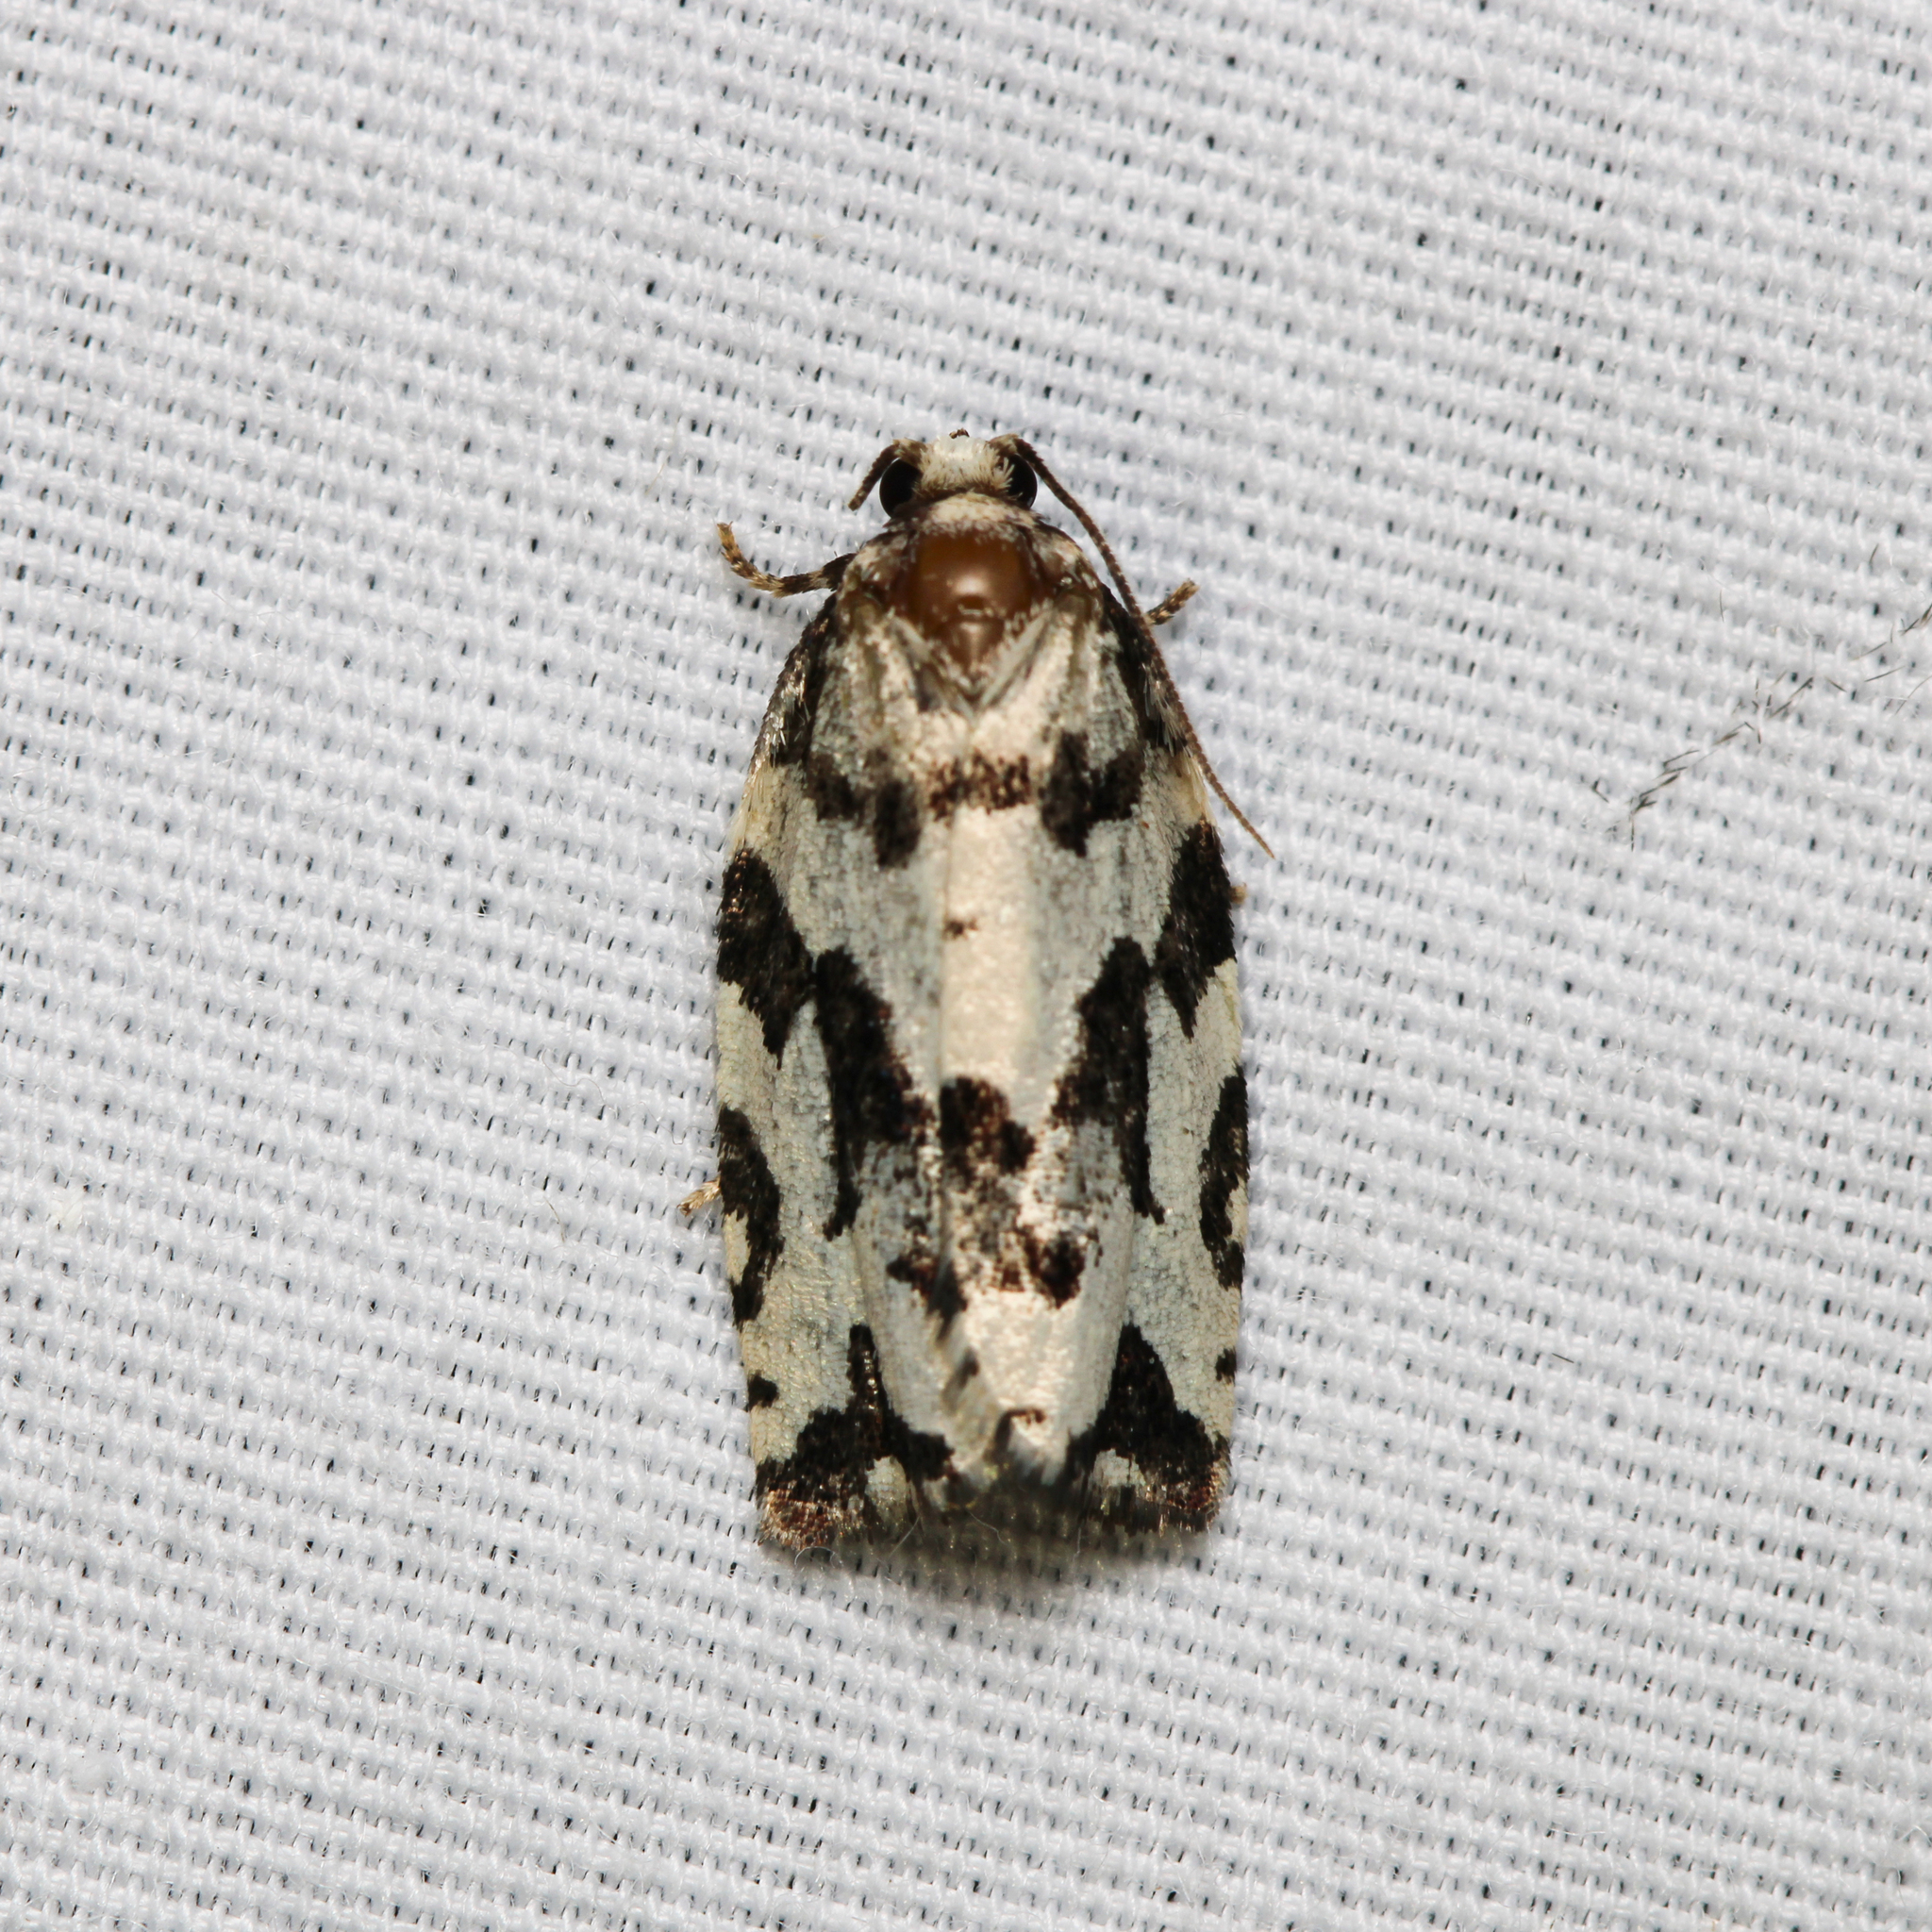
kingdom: Animalia
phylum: Arthropoda
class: Insecta
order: Lepidoptera
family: Tortricidae
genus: Archips
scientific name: Archips dissitana
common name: Boldly-marked archips moth
